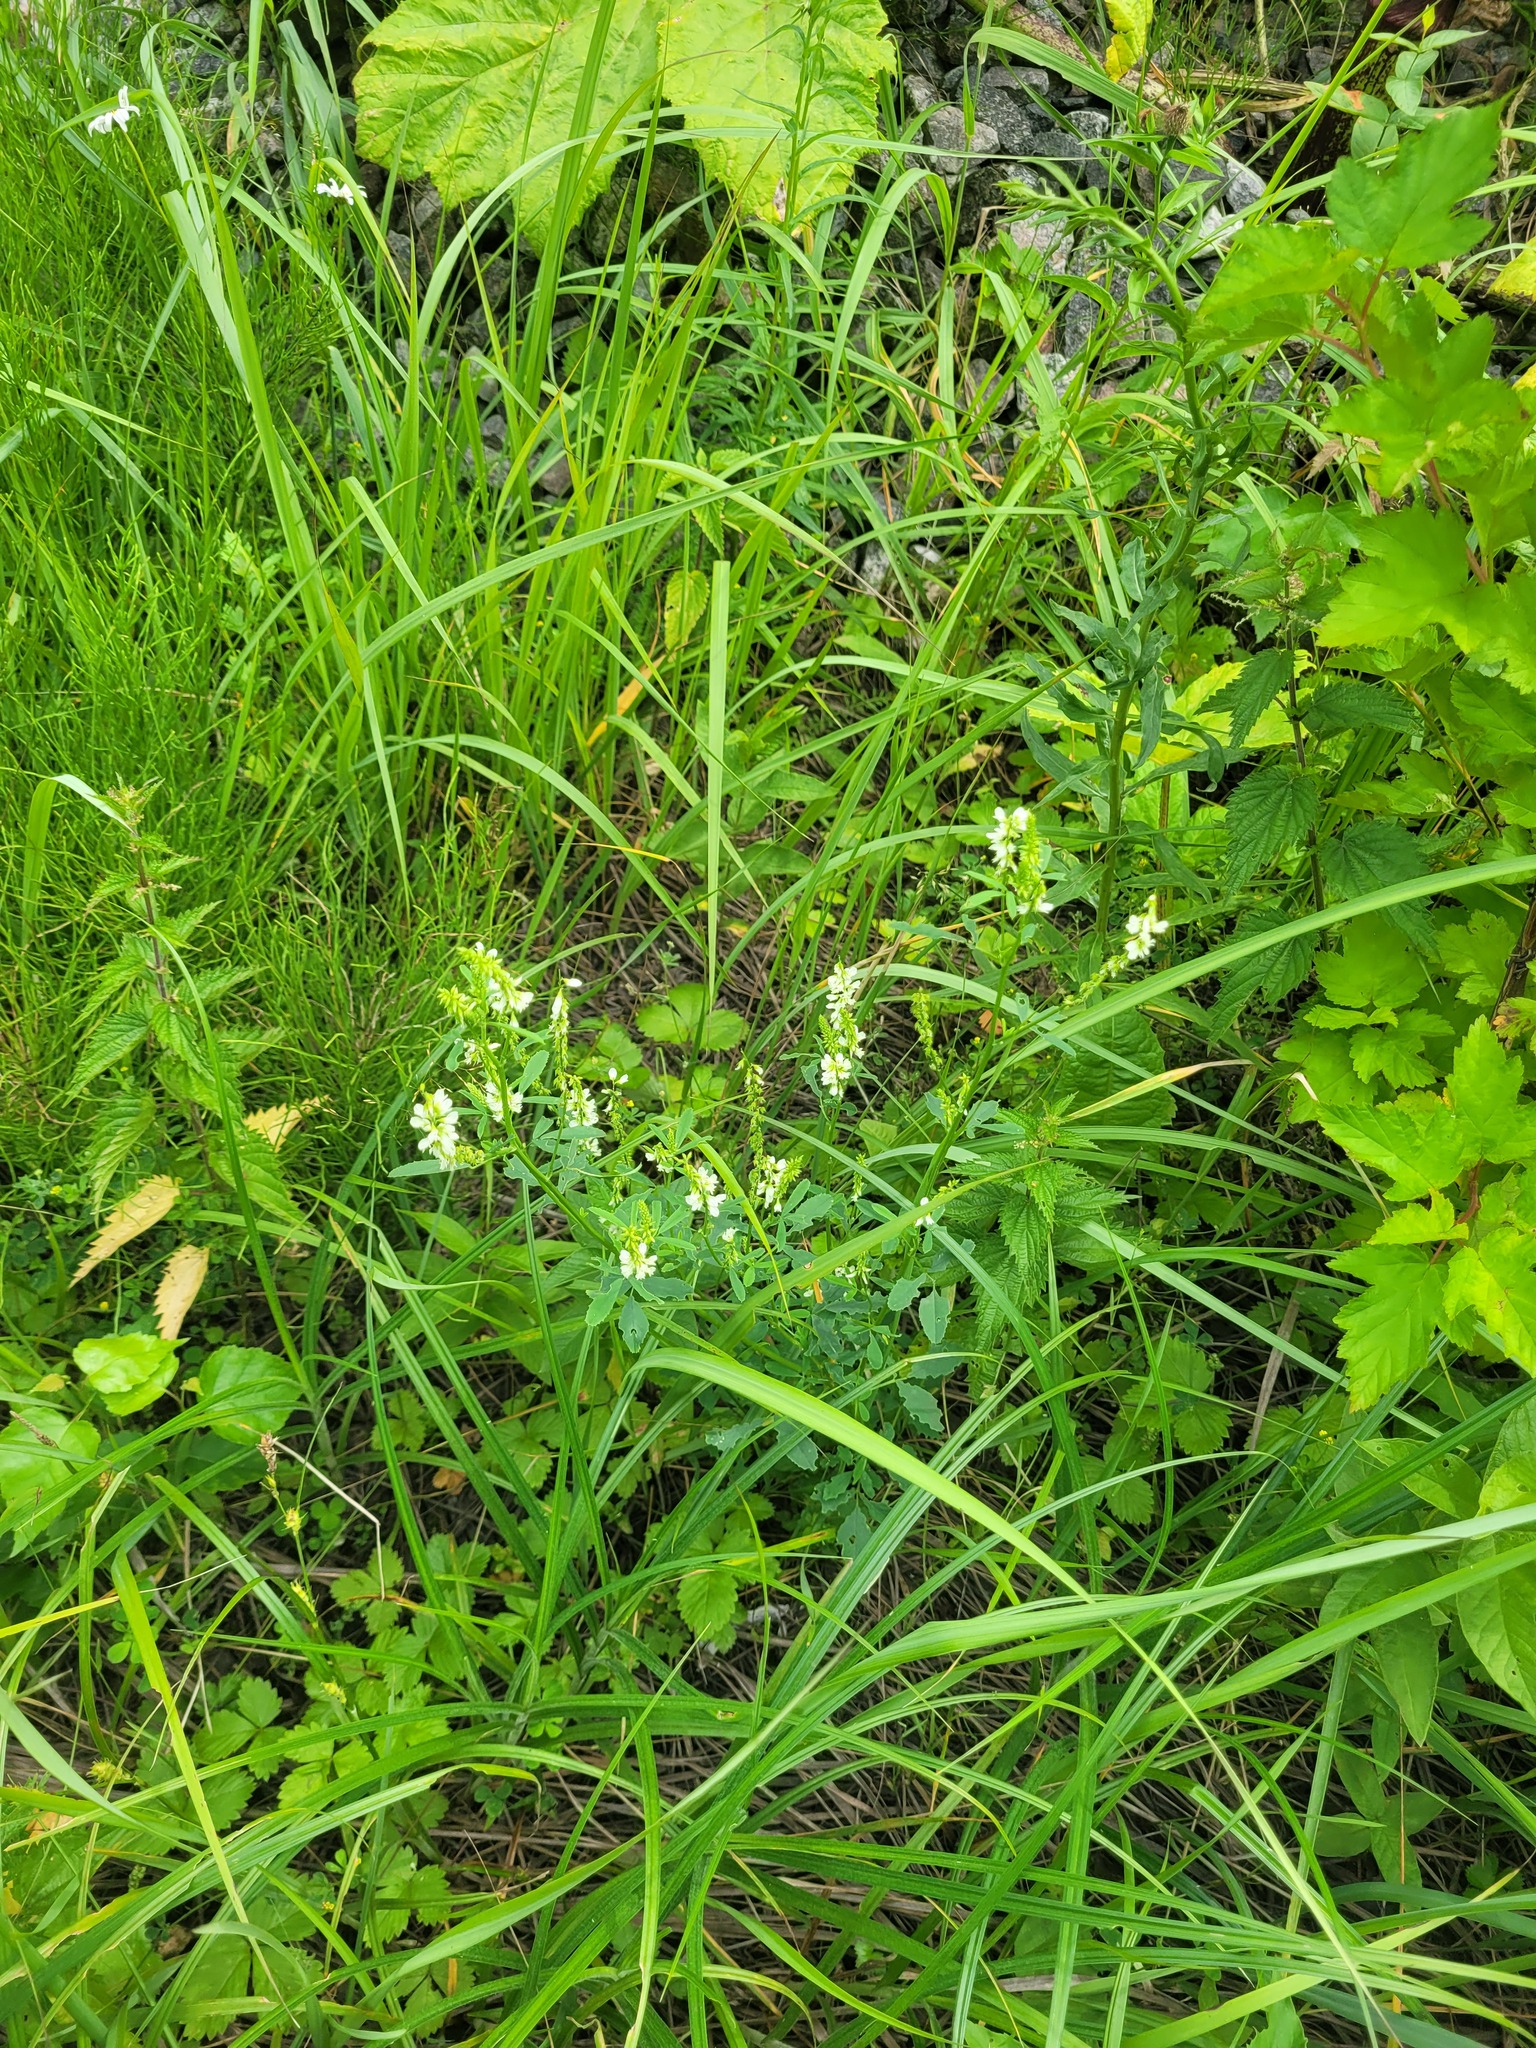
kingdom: Plantae
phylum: Tracheophyta
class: Magnoliopsida
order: Fabales
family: Fabaceae
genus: Melilotus
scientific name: Melilotus albus
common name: White melilot
